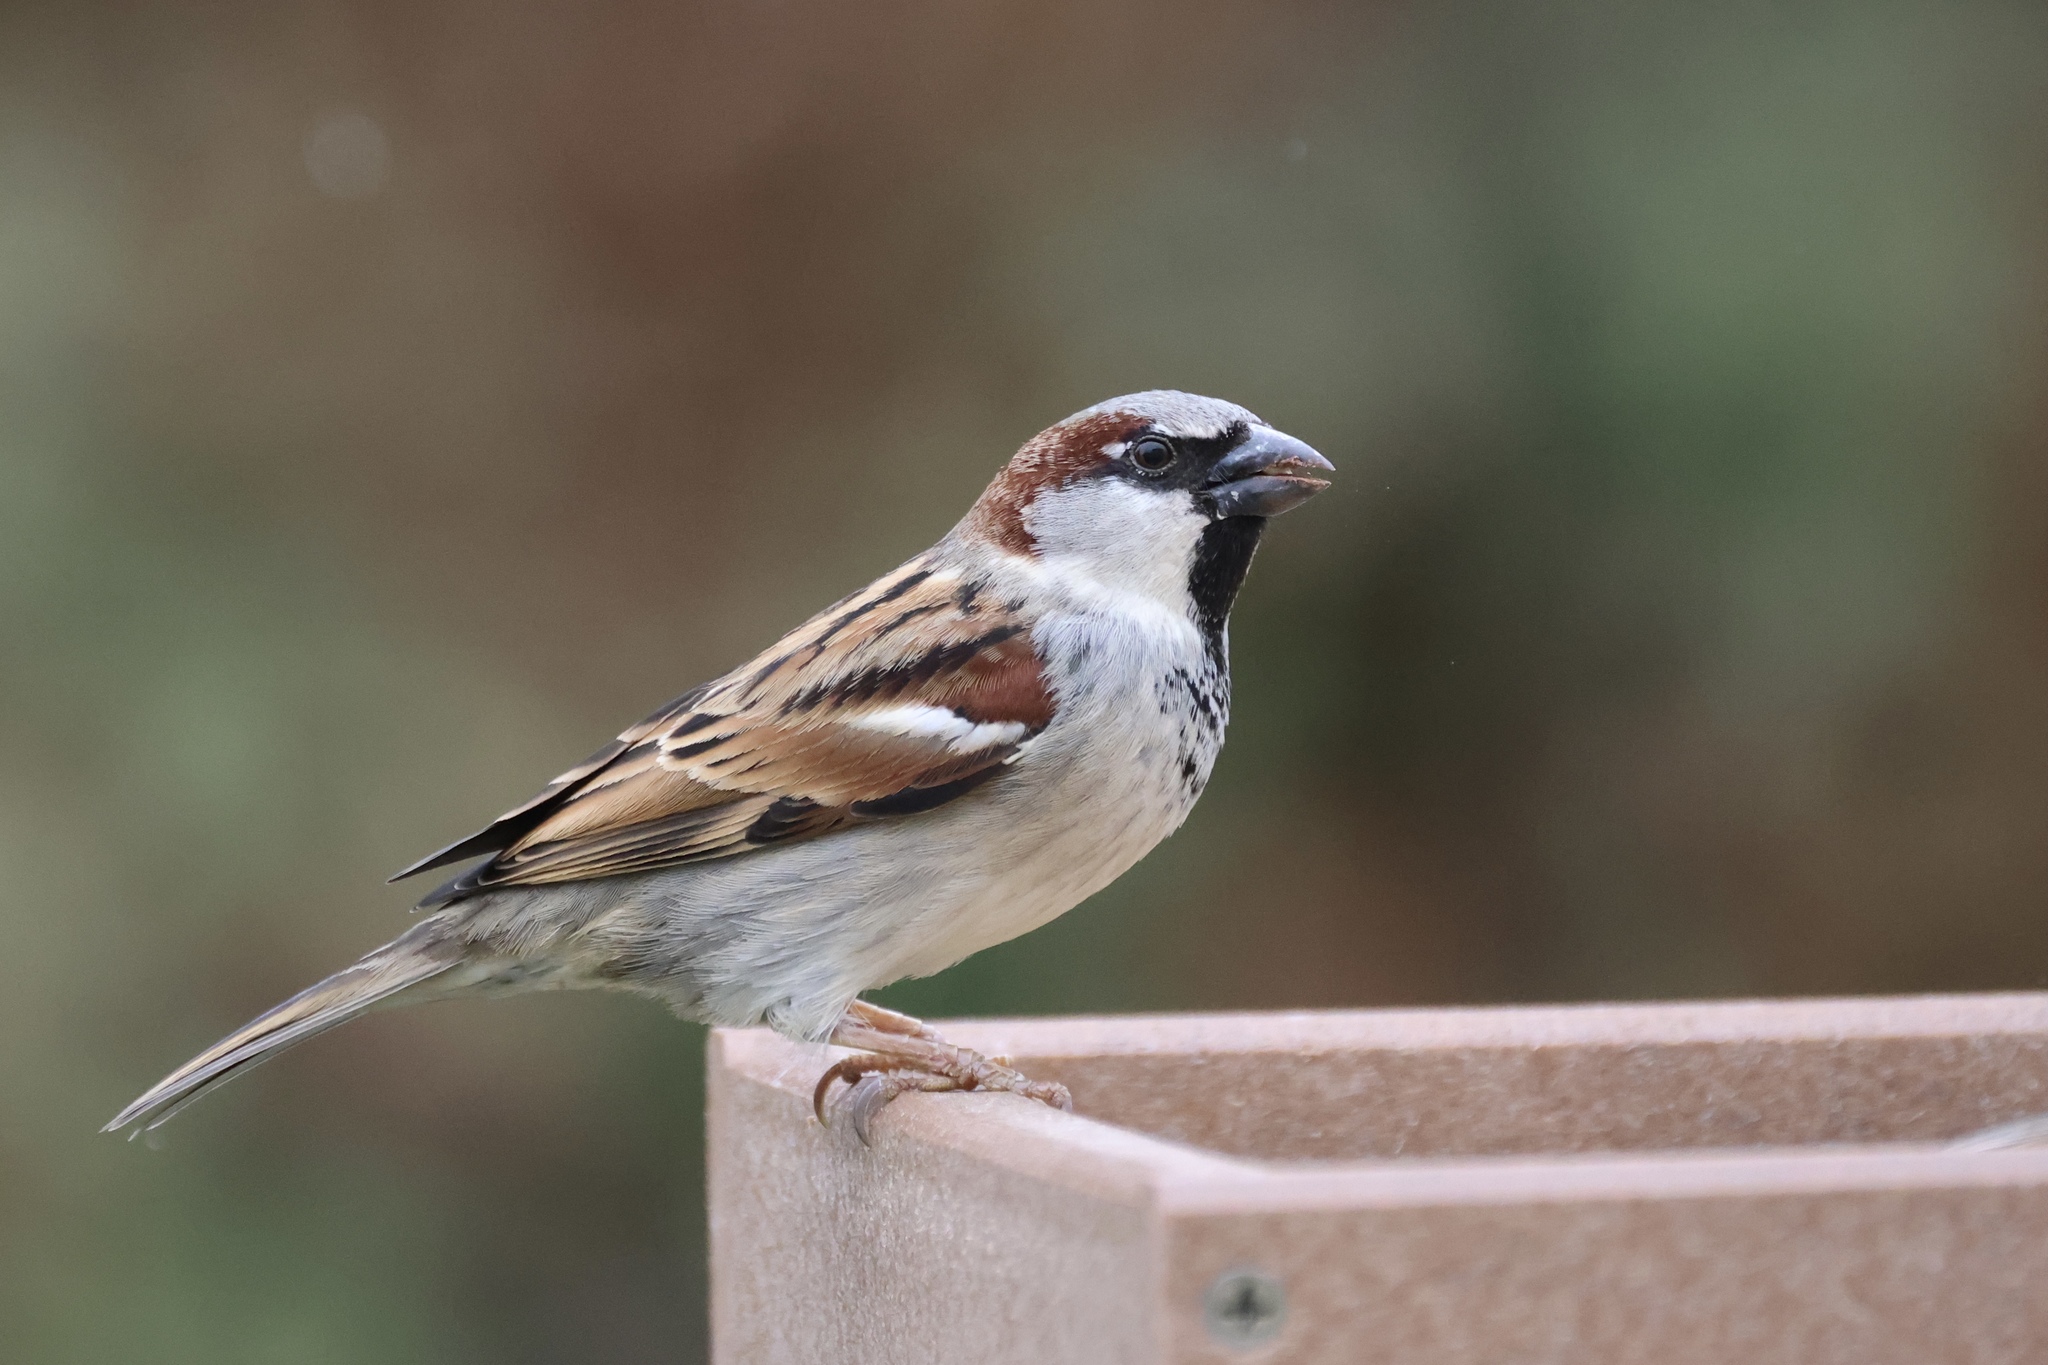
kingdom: Animalia
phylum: Chordata
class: Aves
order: Passeriformes
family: Passeridae
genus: Passer
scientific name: Passer domesticus
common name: House sparrow
